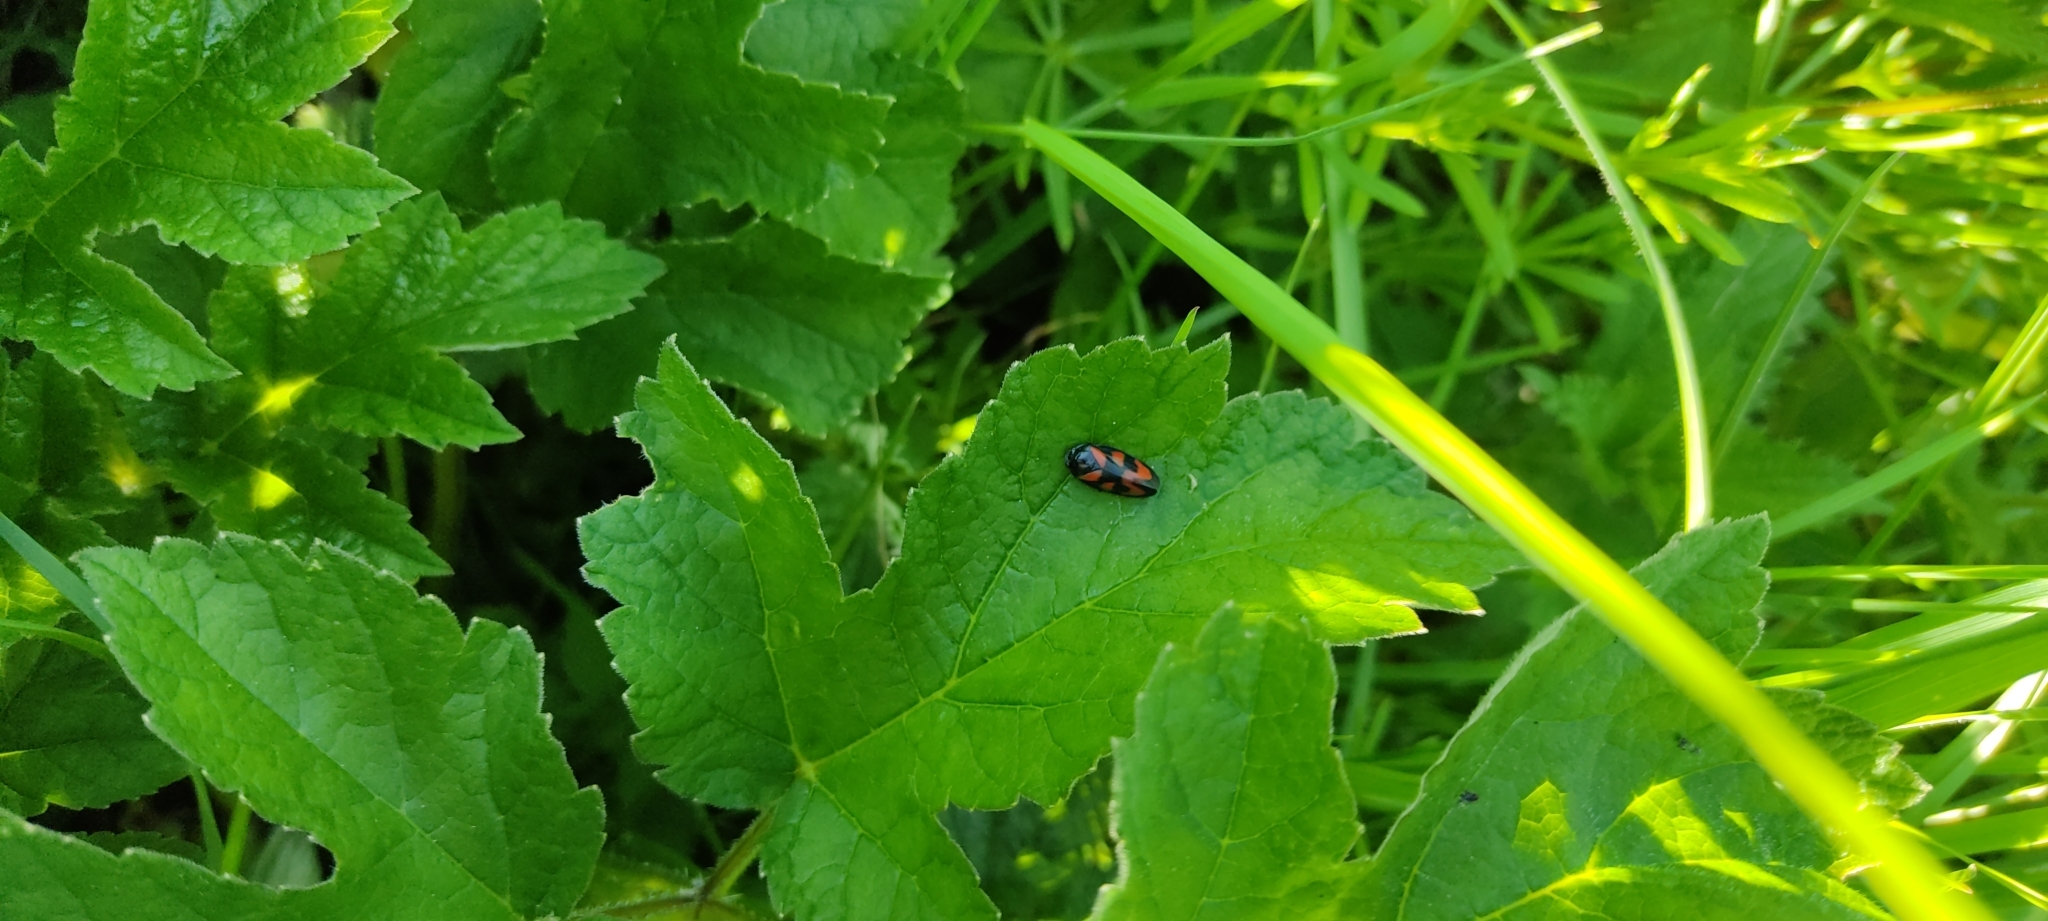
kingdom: Animalia
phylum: Arthropoda
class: Insecta
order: Hemiptera
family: Cercopidae
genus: Cercopis
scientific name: Cercopis vulnerata
